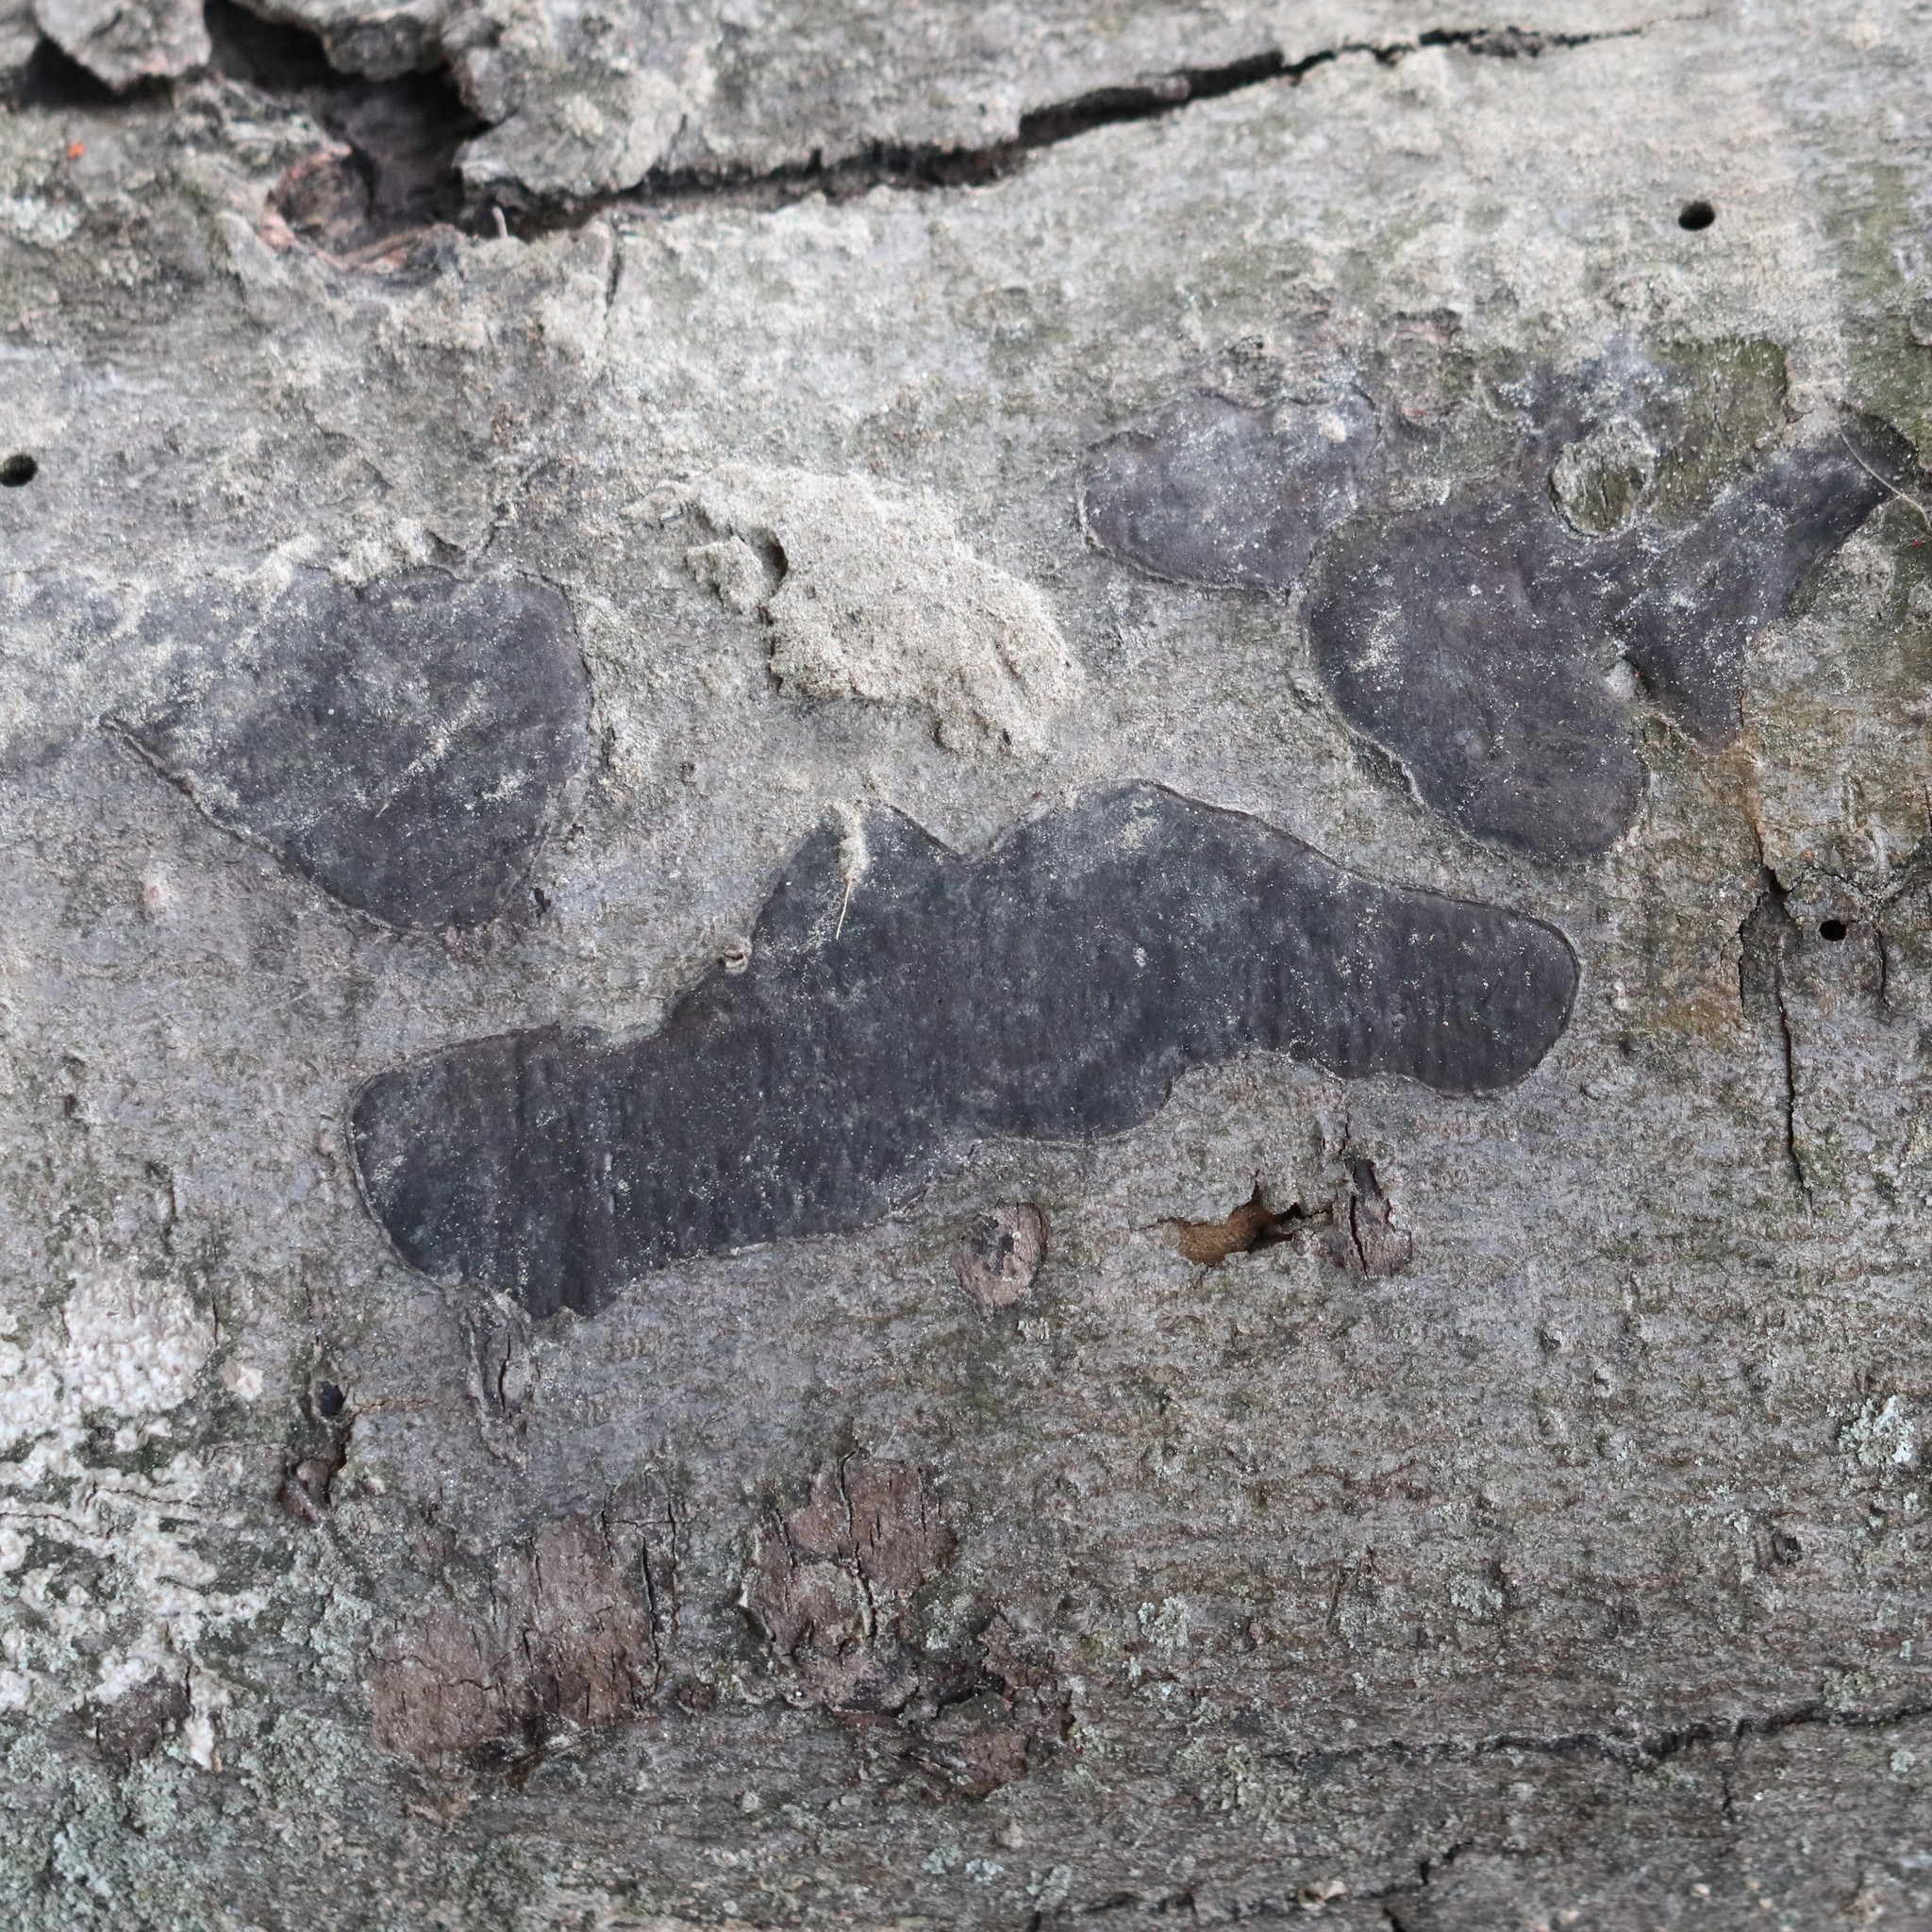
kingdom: Fungi
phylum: Ascomycota
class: Sordariomycetes
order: Xylariales
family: Diatrypaceae
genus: Diatrype
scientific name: Diatrype stigma
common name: Common tarcrust
